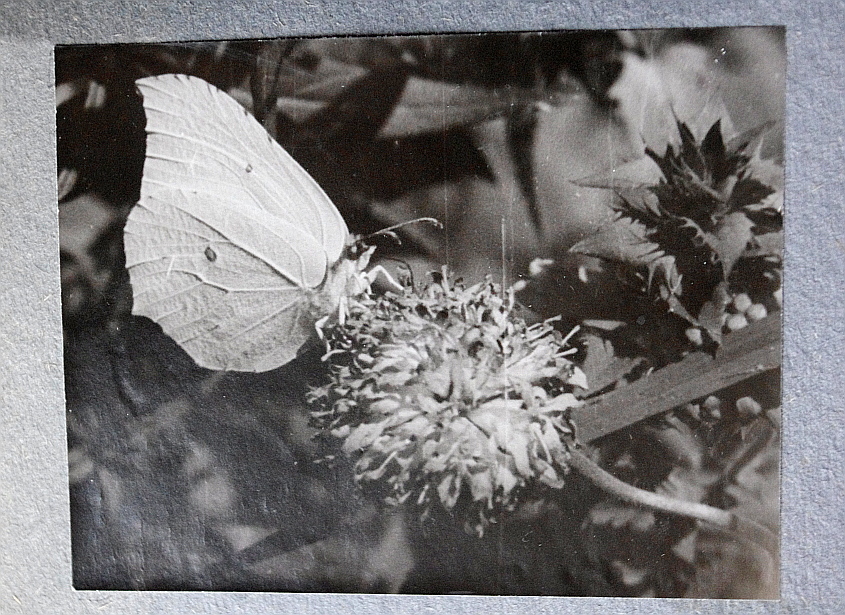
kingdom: Animalia
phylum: Arthropoda
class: Insecta
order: Lepidoptera
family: Pieridae
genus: Gonepteryx
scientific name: Gonepteryx rhamni
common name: Brimstone
